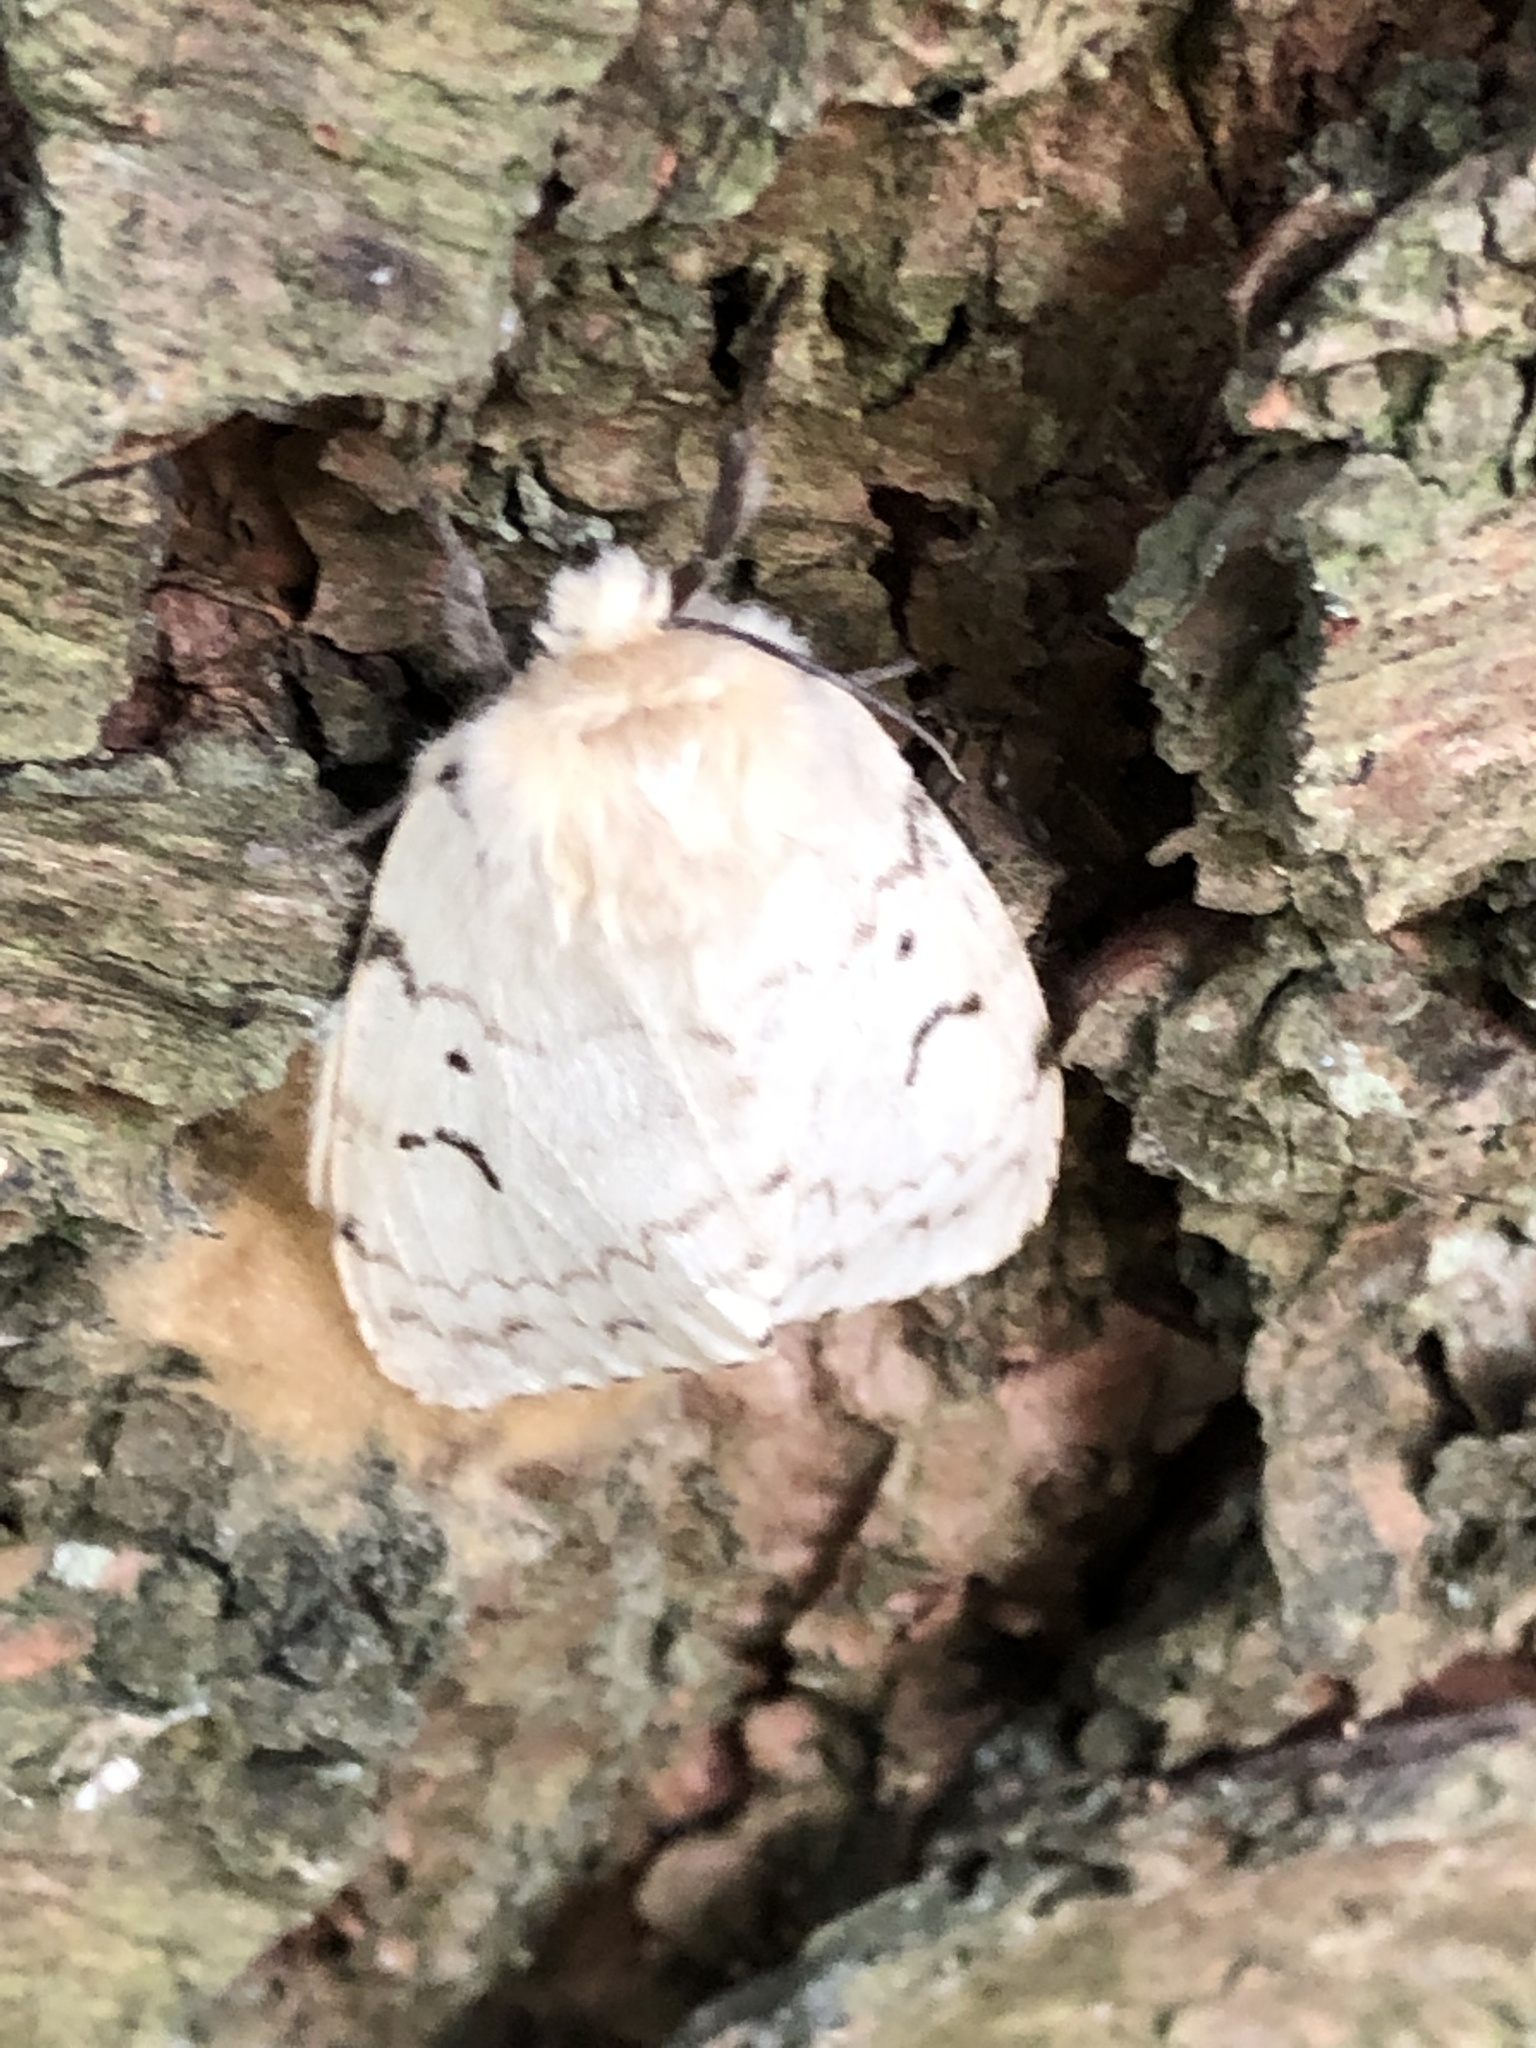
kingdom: Animalia
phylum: Arthropoda
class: Insecta
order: Lepidoptera
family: Erebidae
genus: Lymantria
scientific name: Lymantria dispar
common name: Gypsy moth
